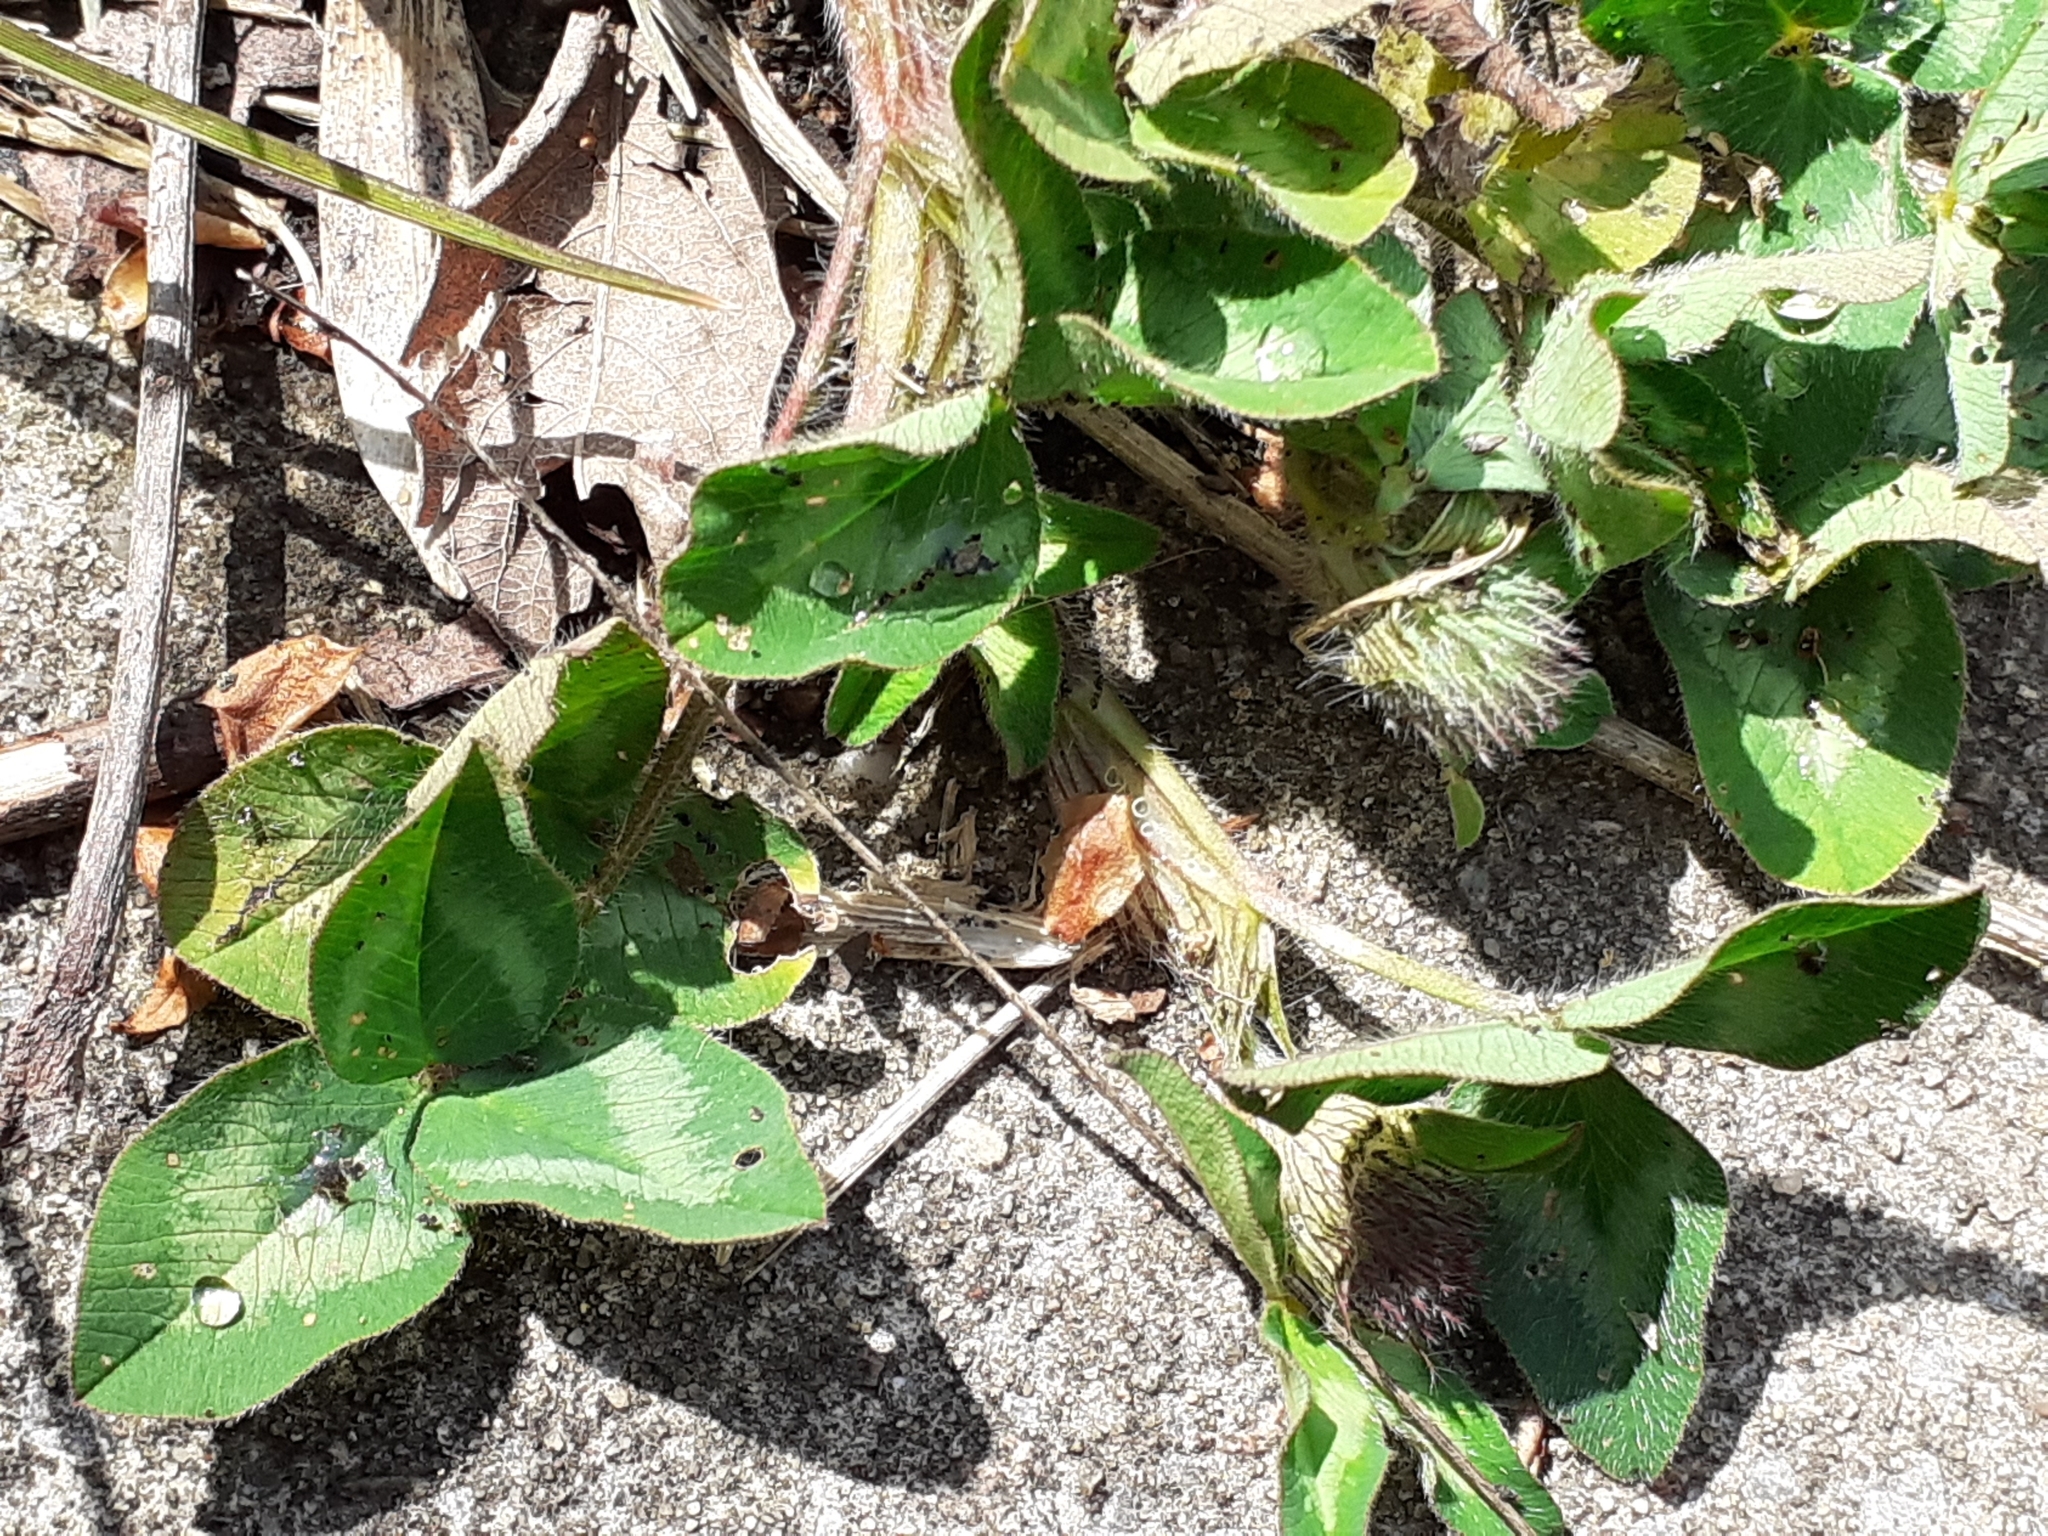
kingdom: Plantae
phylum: Tracheophyta
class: Magnoliopsida
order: Fabales
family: Fabaceae
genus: Trifolium
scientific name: Trifolium pratense
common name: Red clover
